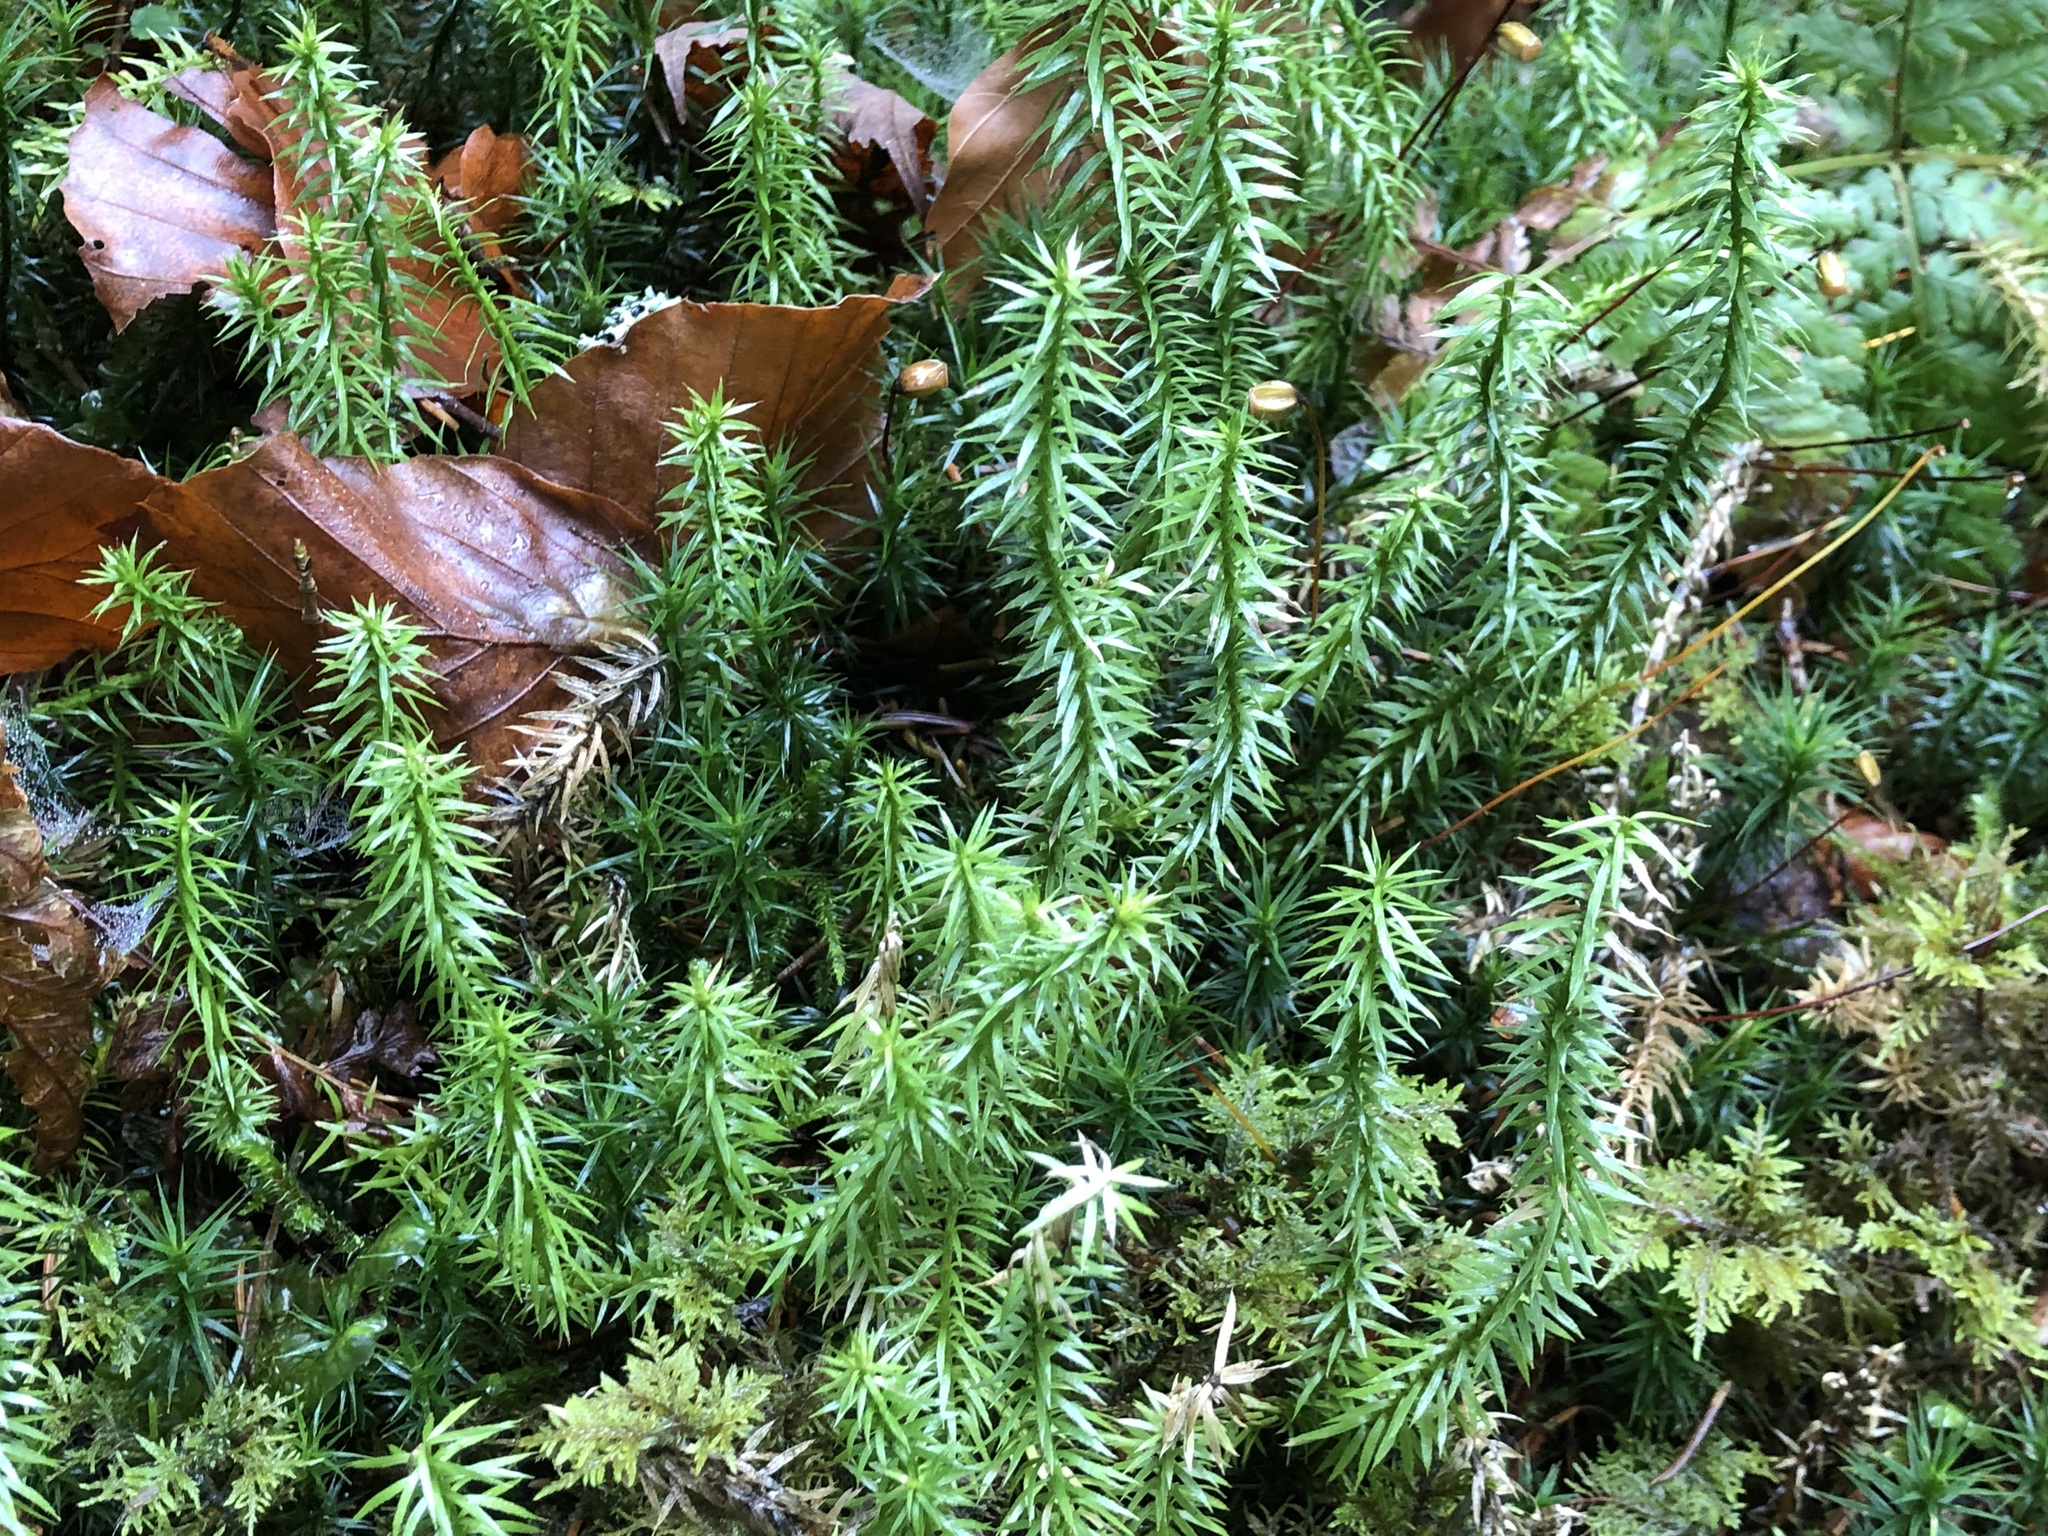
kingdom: Plantae
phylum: Tracheophyta
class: Lycopodiopsida
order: Lycopodiales
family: Lycopodiaceae
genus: Spinulum
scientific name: Spinulum annotinum
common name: Interrupted club-moss
